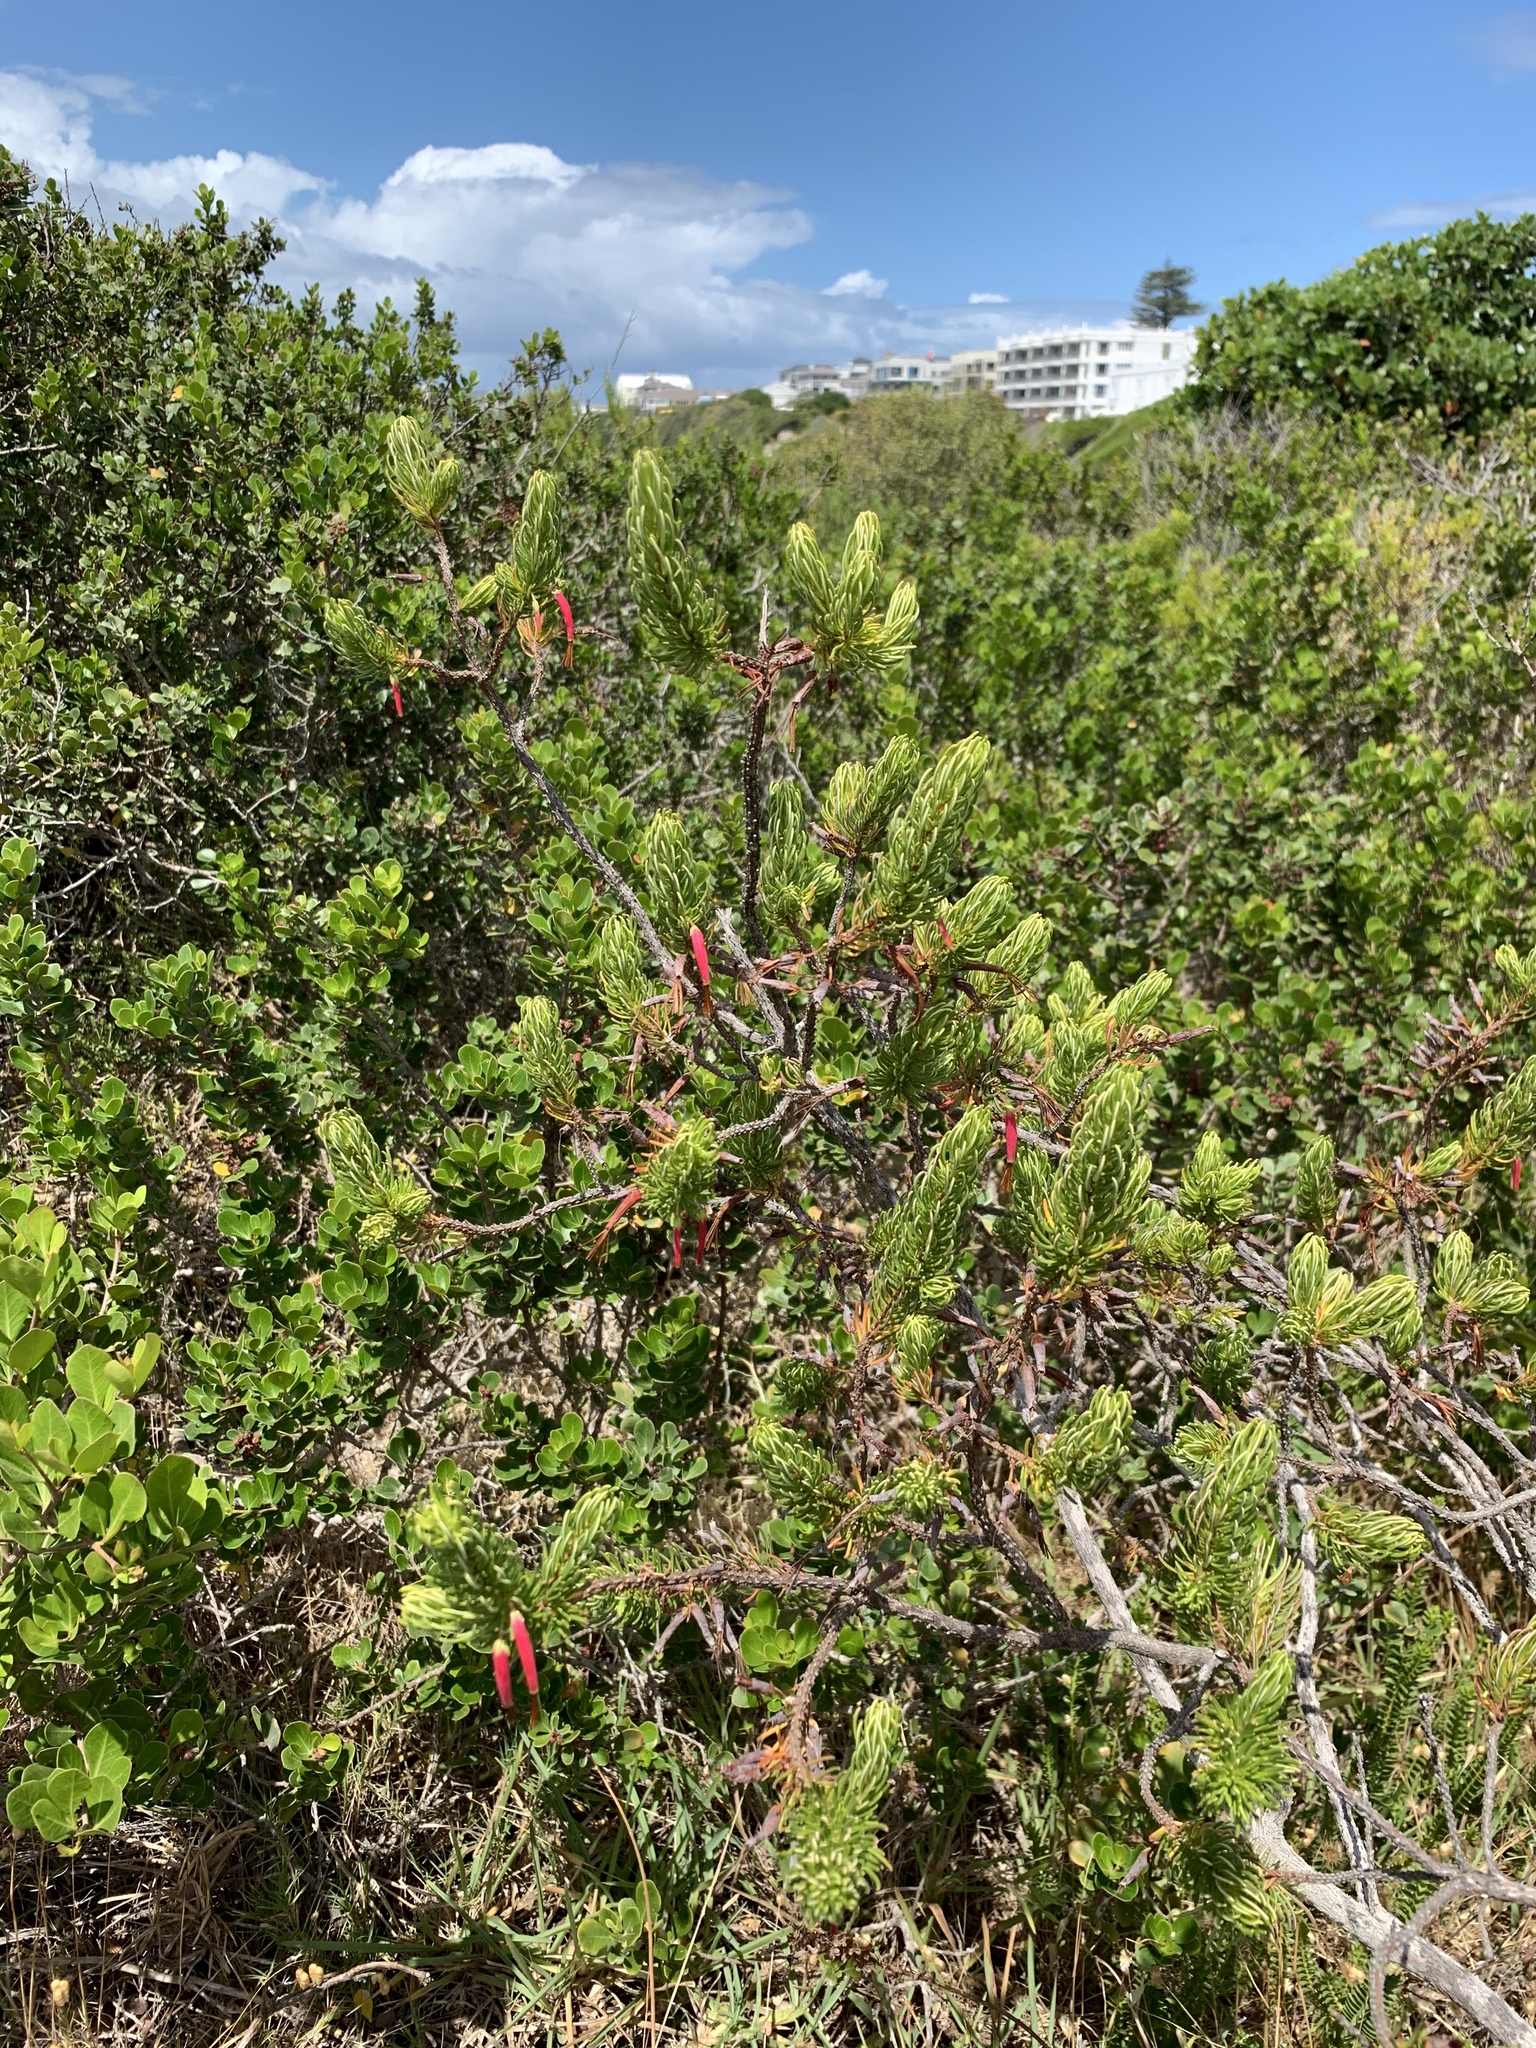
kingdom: Plantae
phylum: Tracheophyta
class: Magnoliopsida
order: Ericales
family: Ericaceae
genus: Erica
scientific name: Erica plukenetii
